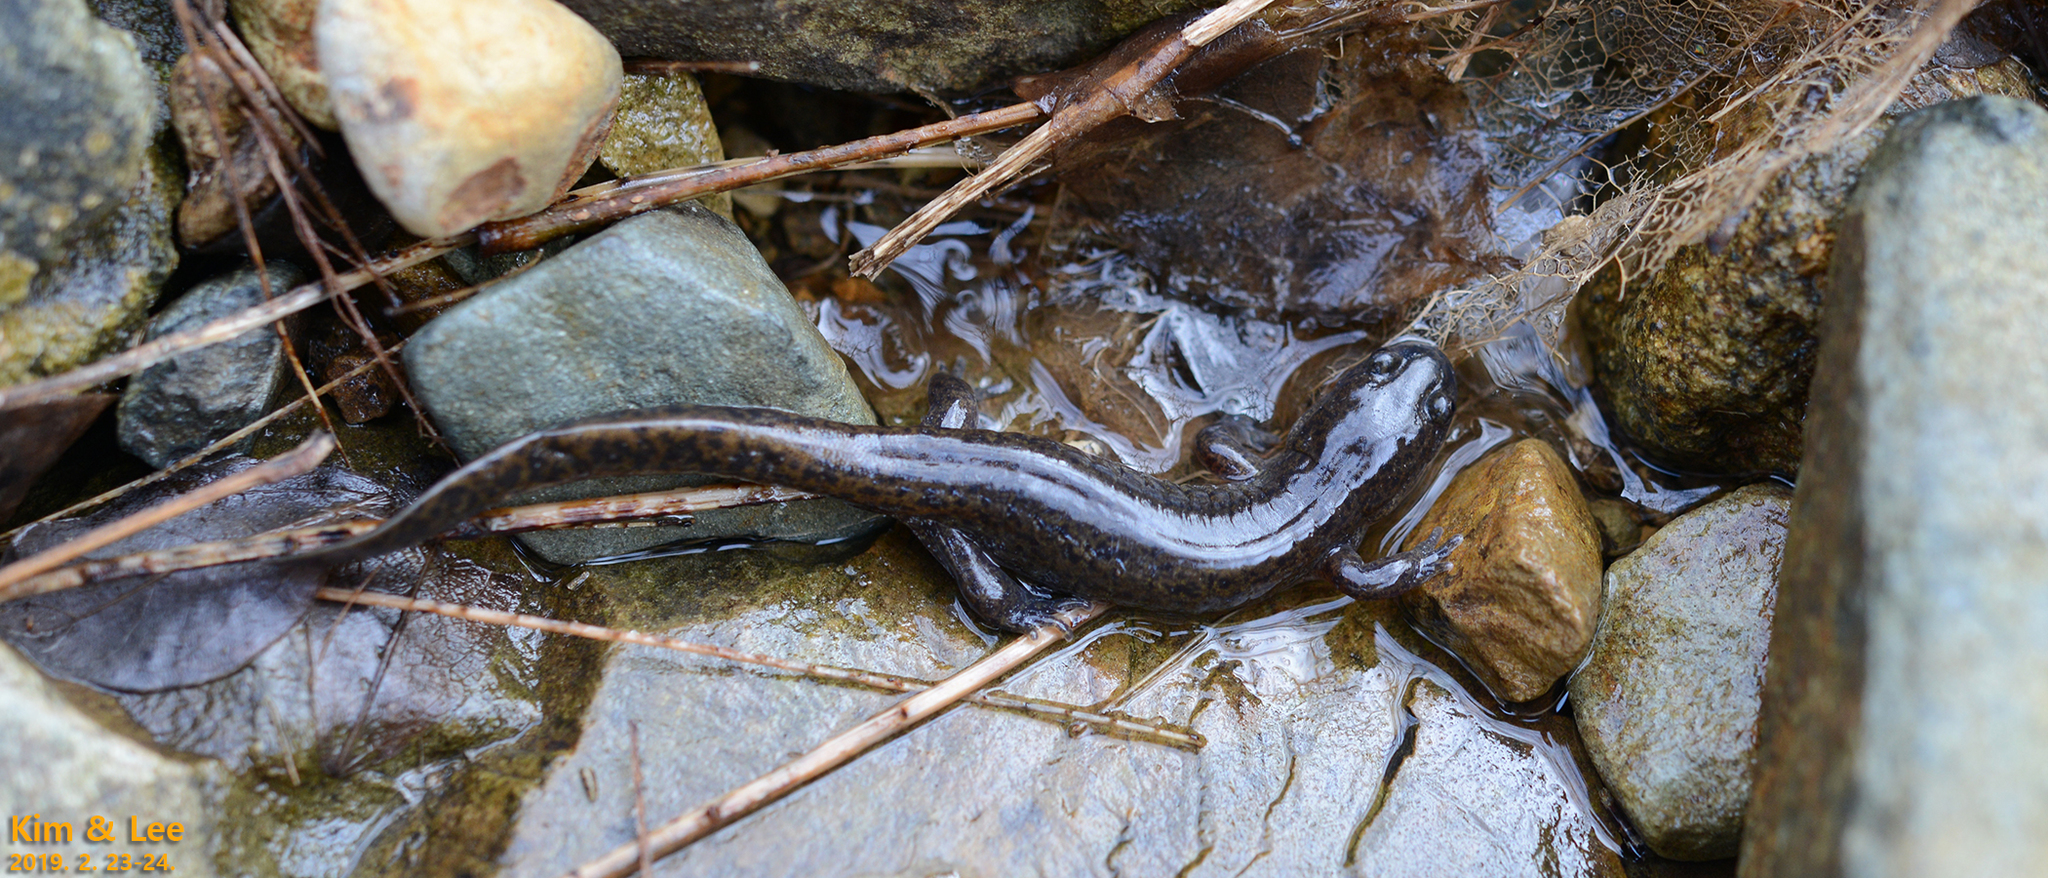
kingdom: Animalia
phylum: Chordata
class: Amphibia
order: Caudata
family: Hynobiidae
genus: Hynobius
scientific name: Hynobius geojeensis
